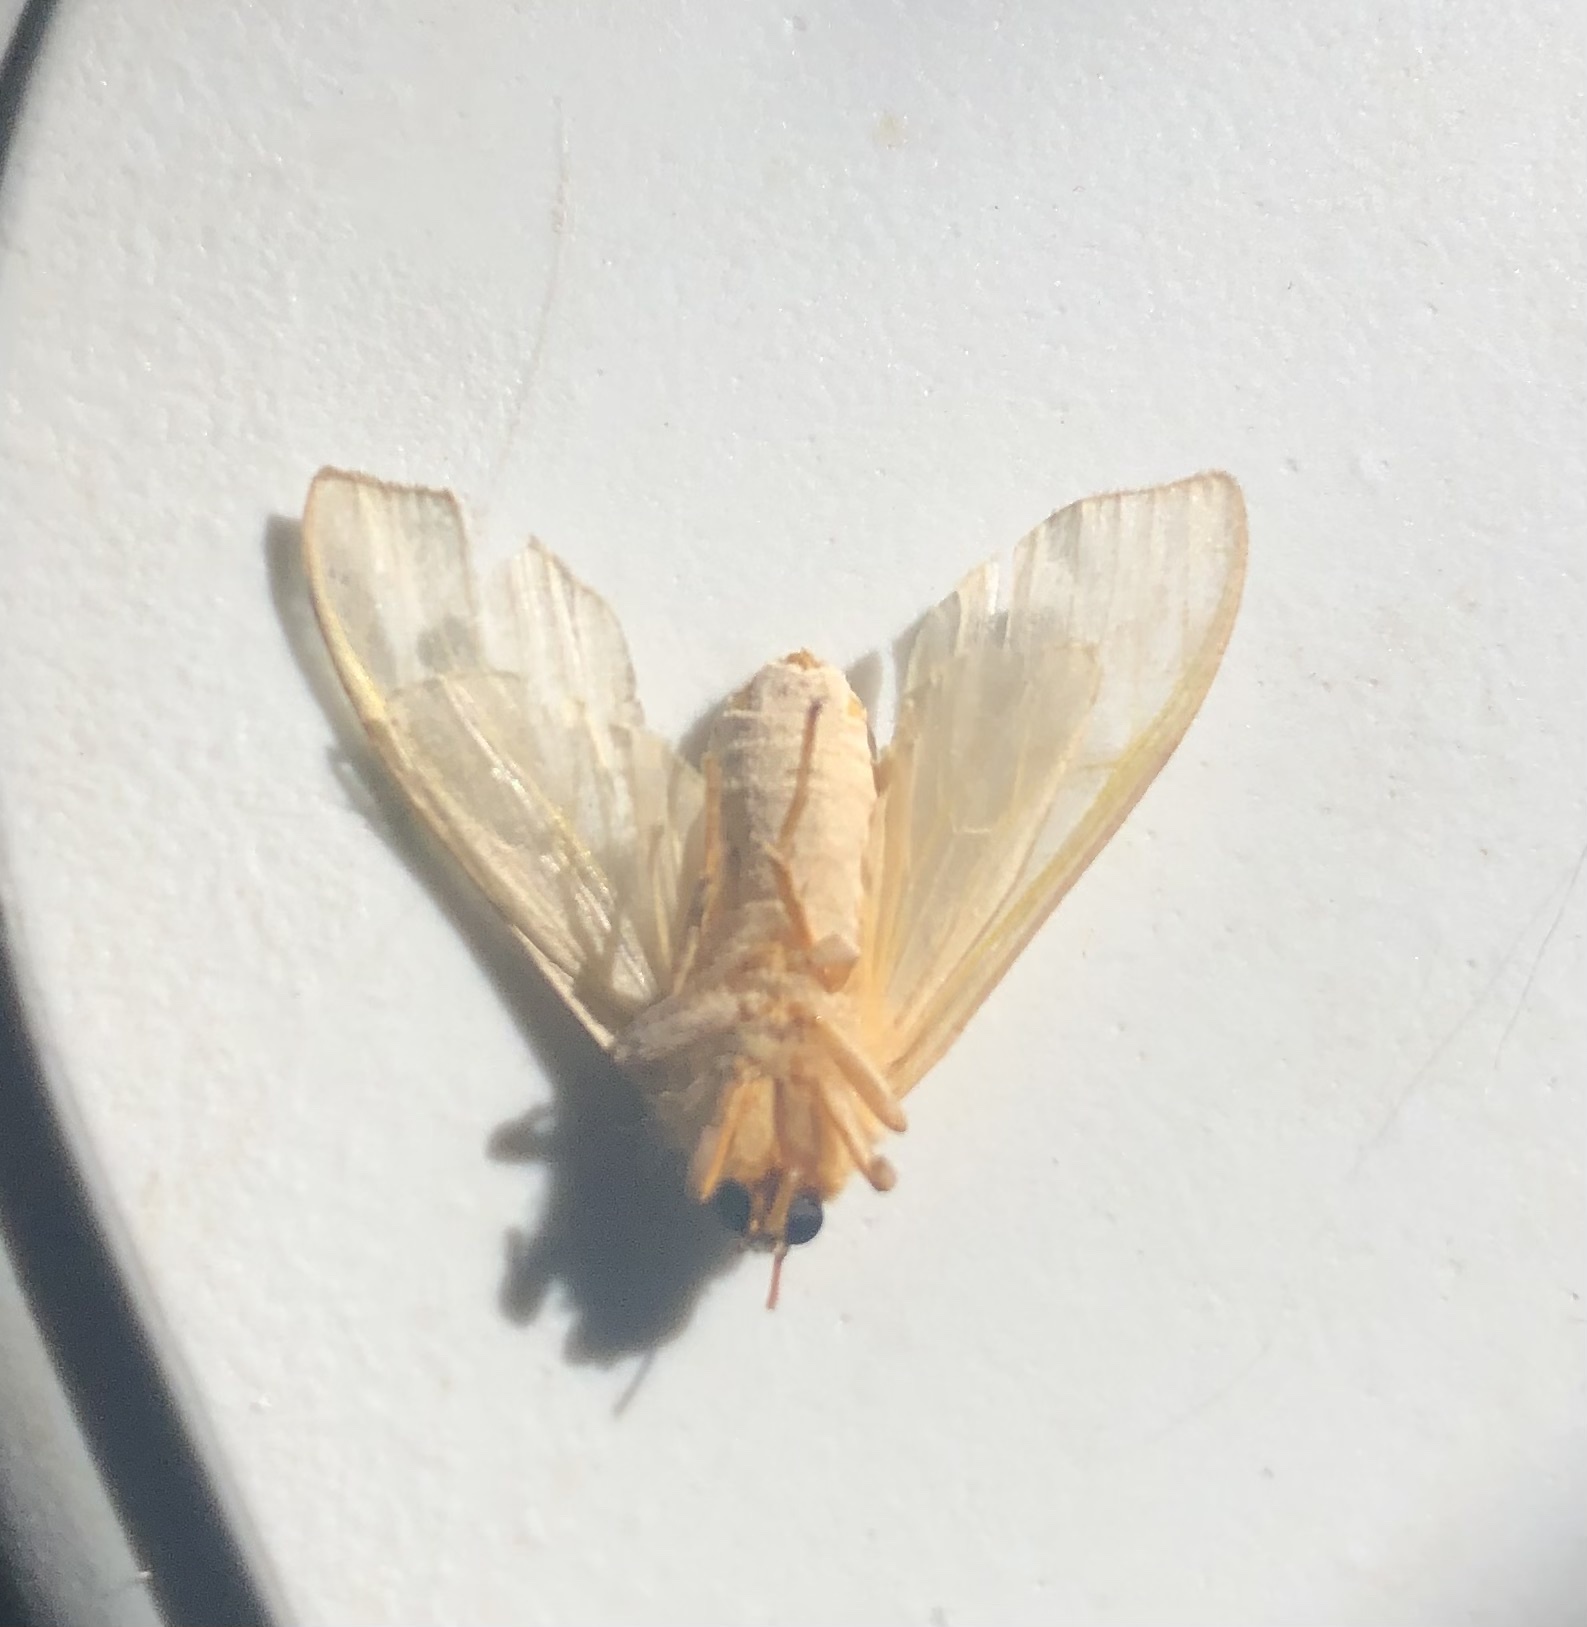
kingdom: Animalia
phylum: Arthropoda
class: Insecta
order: Lepidoptera
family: Erebidae
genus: Halysidota
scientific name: Halysidota
